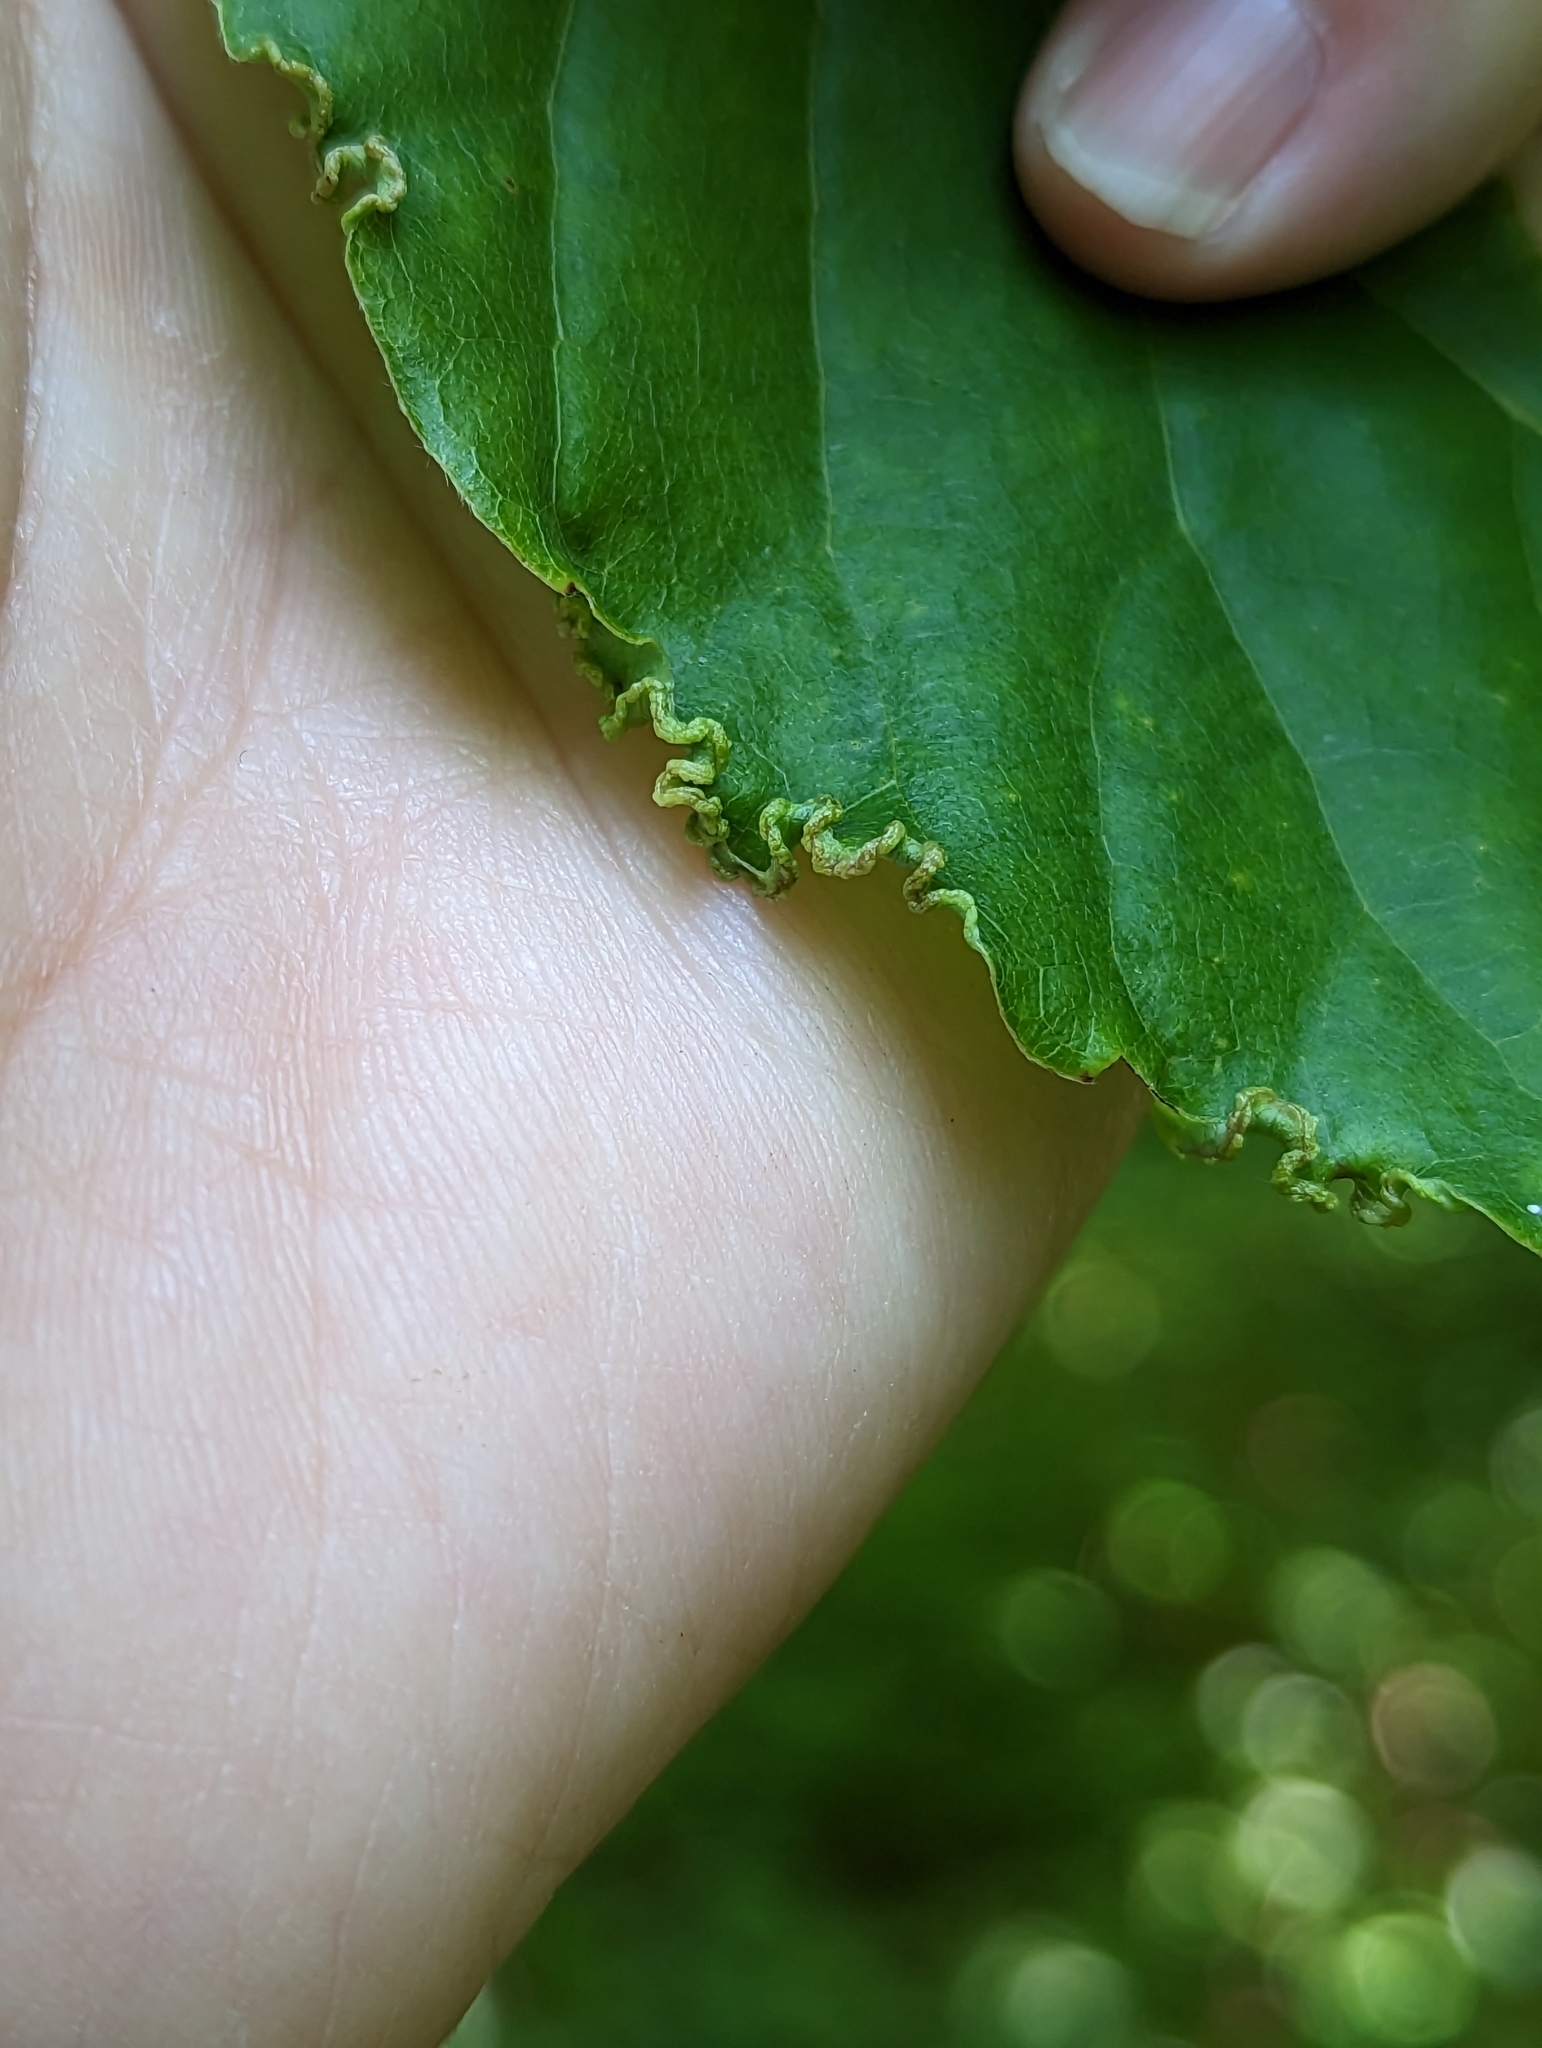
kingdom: Animalia
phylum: Arthropoda
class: Arachnida
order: Trombidiformes
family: Eriophyidae
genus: Aceria
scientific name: Aceria
